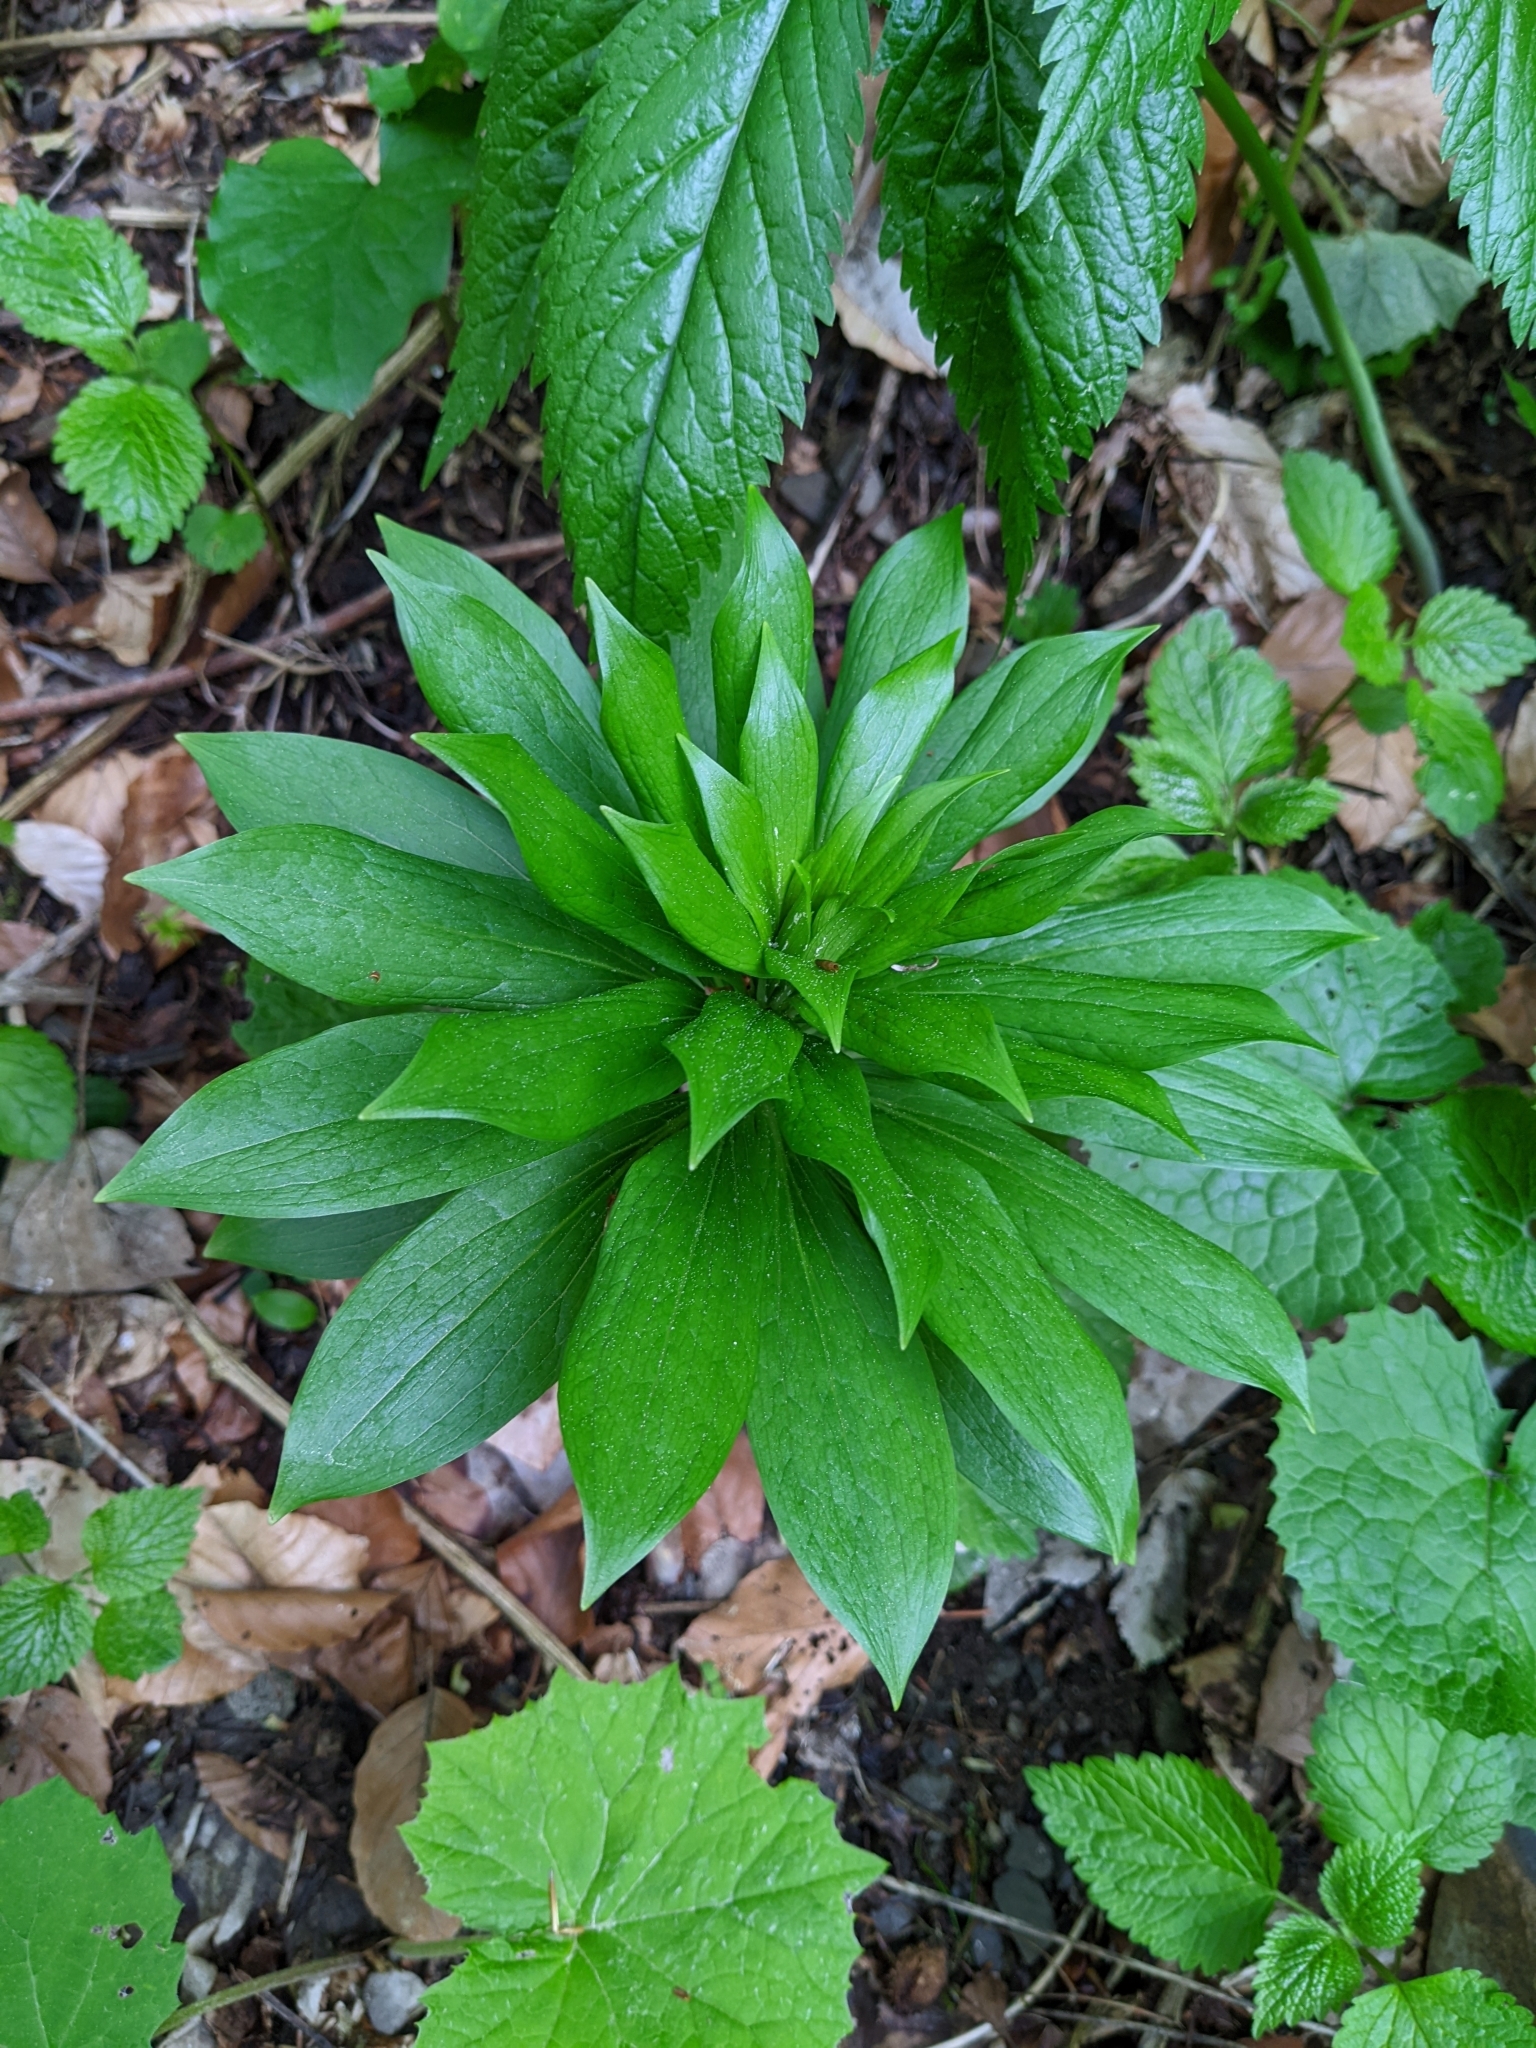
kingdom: Plantae
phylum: Tracheophyta
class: Liliopsida
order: Liliales
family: Liliaceae
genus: Lilium
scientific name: Lilium martagon
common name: Martagon lily
